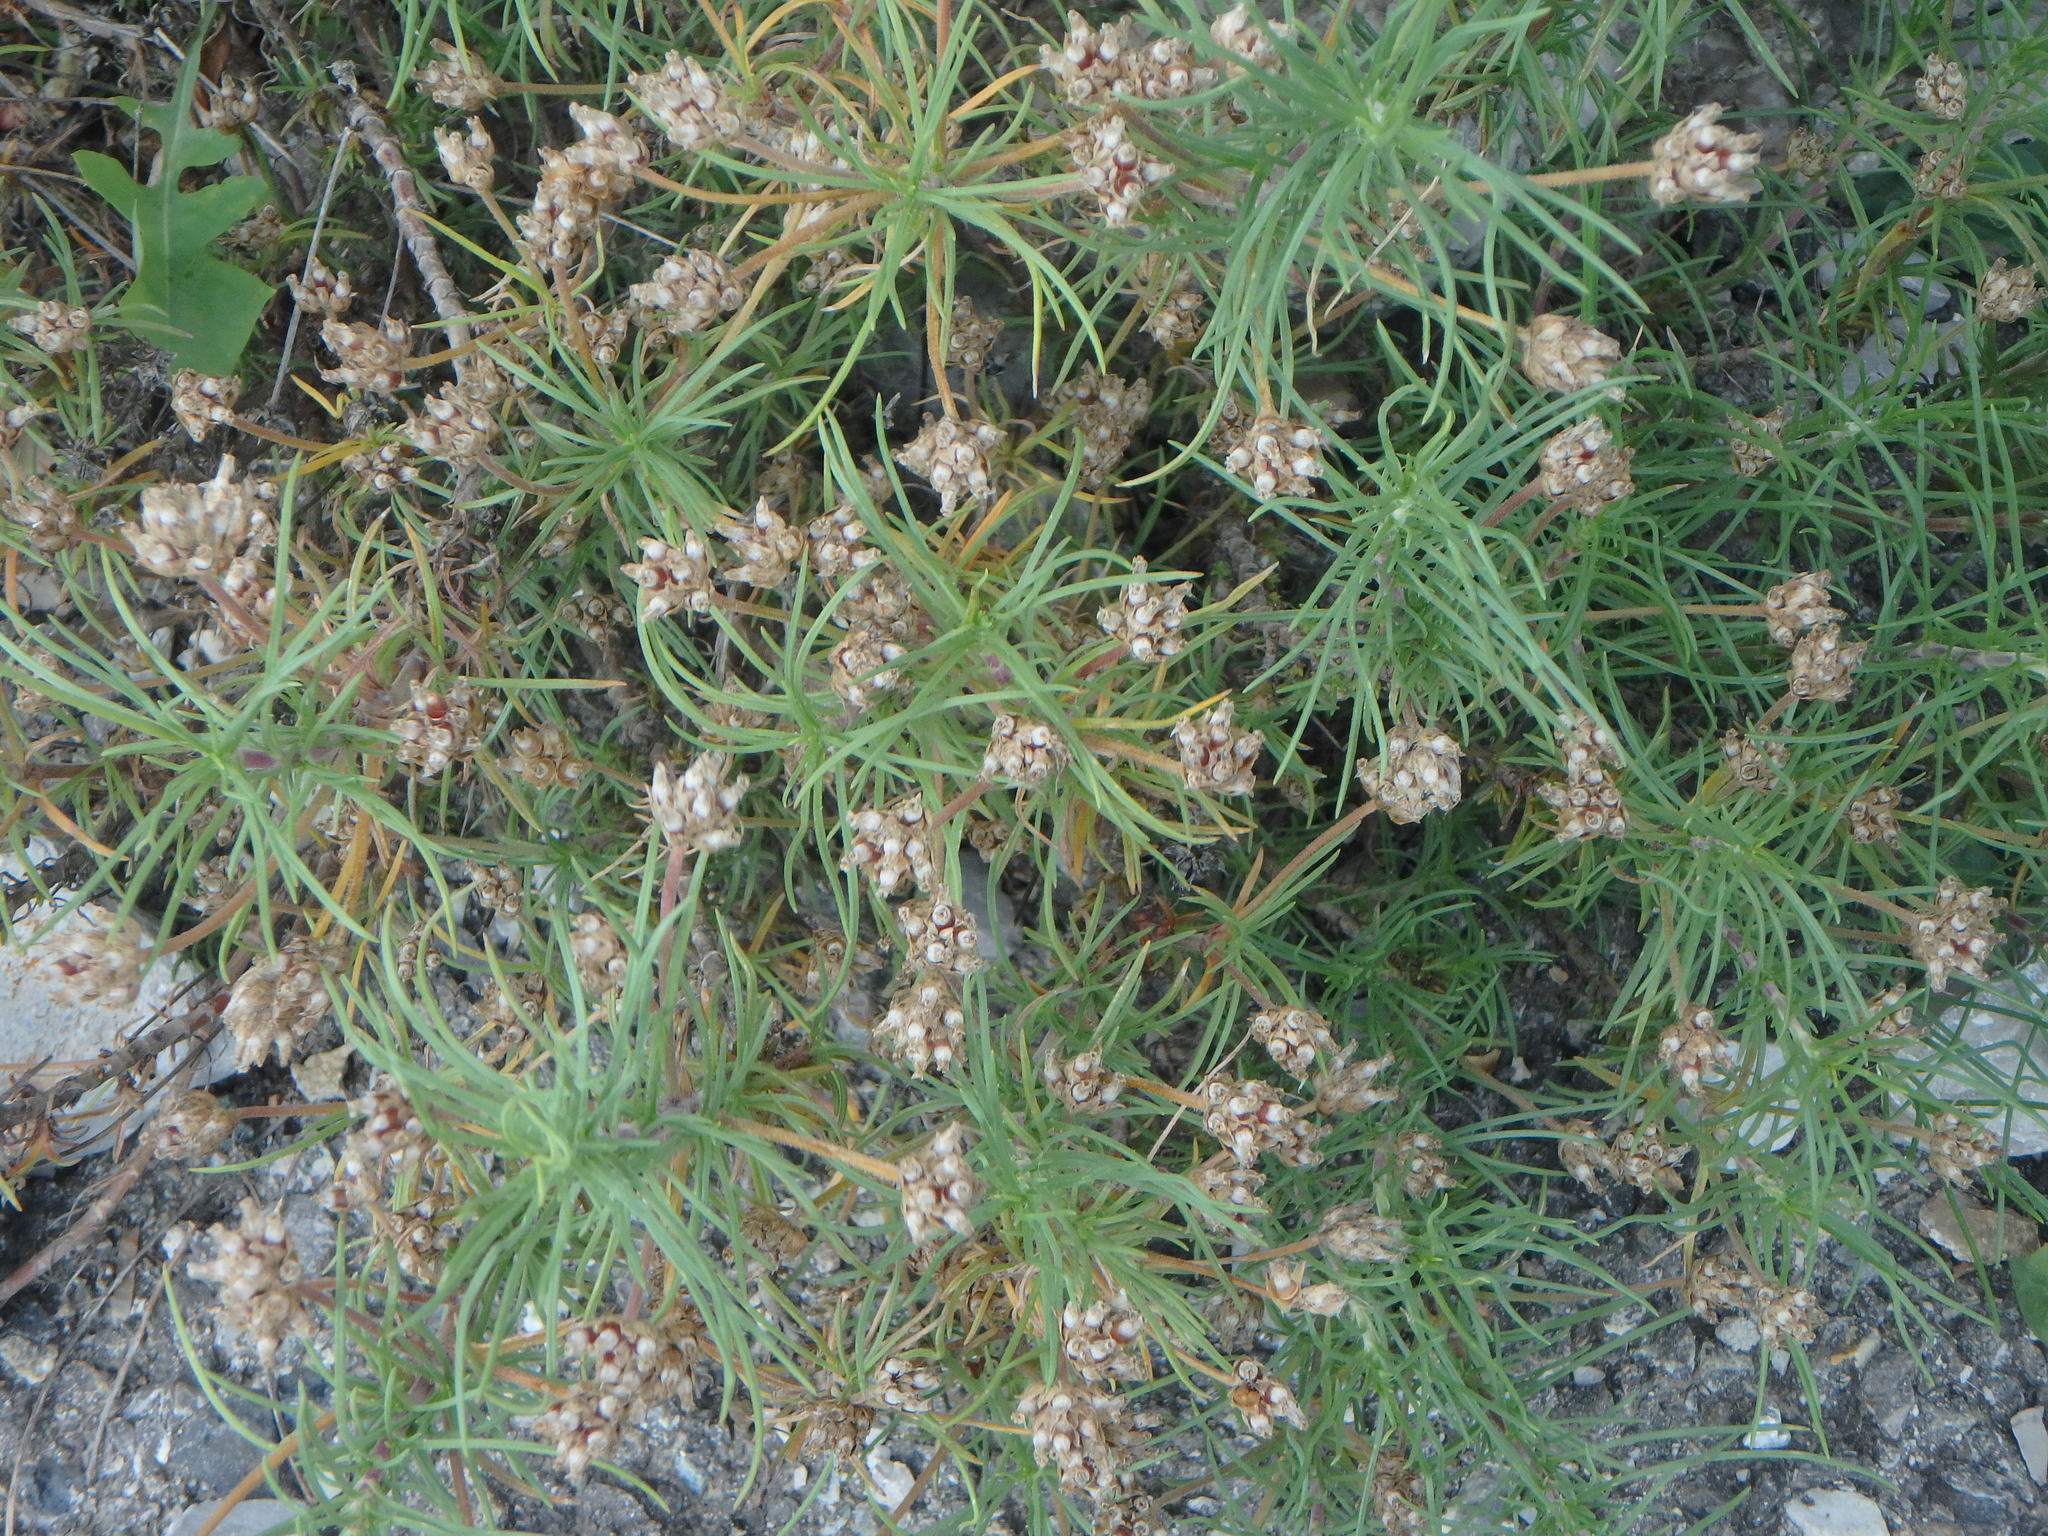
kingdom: Plantae
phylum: Tracheophyta
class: Magnoliopsida
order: Lamiales
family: Plantaginaceae
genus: Plantago
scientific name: Plantago sempervirens
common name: Shrubby plantain
